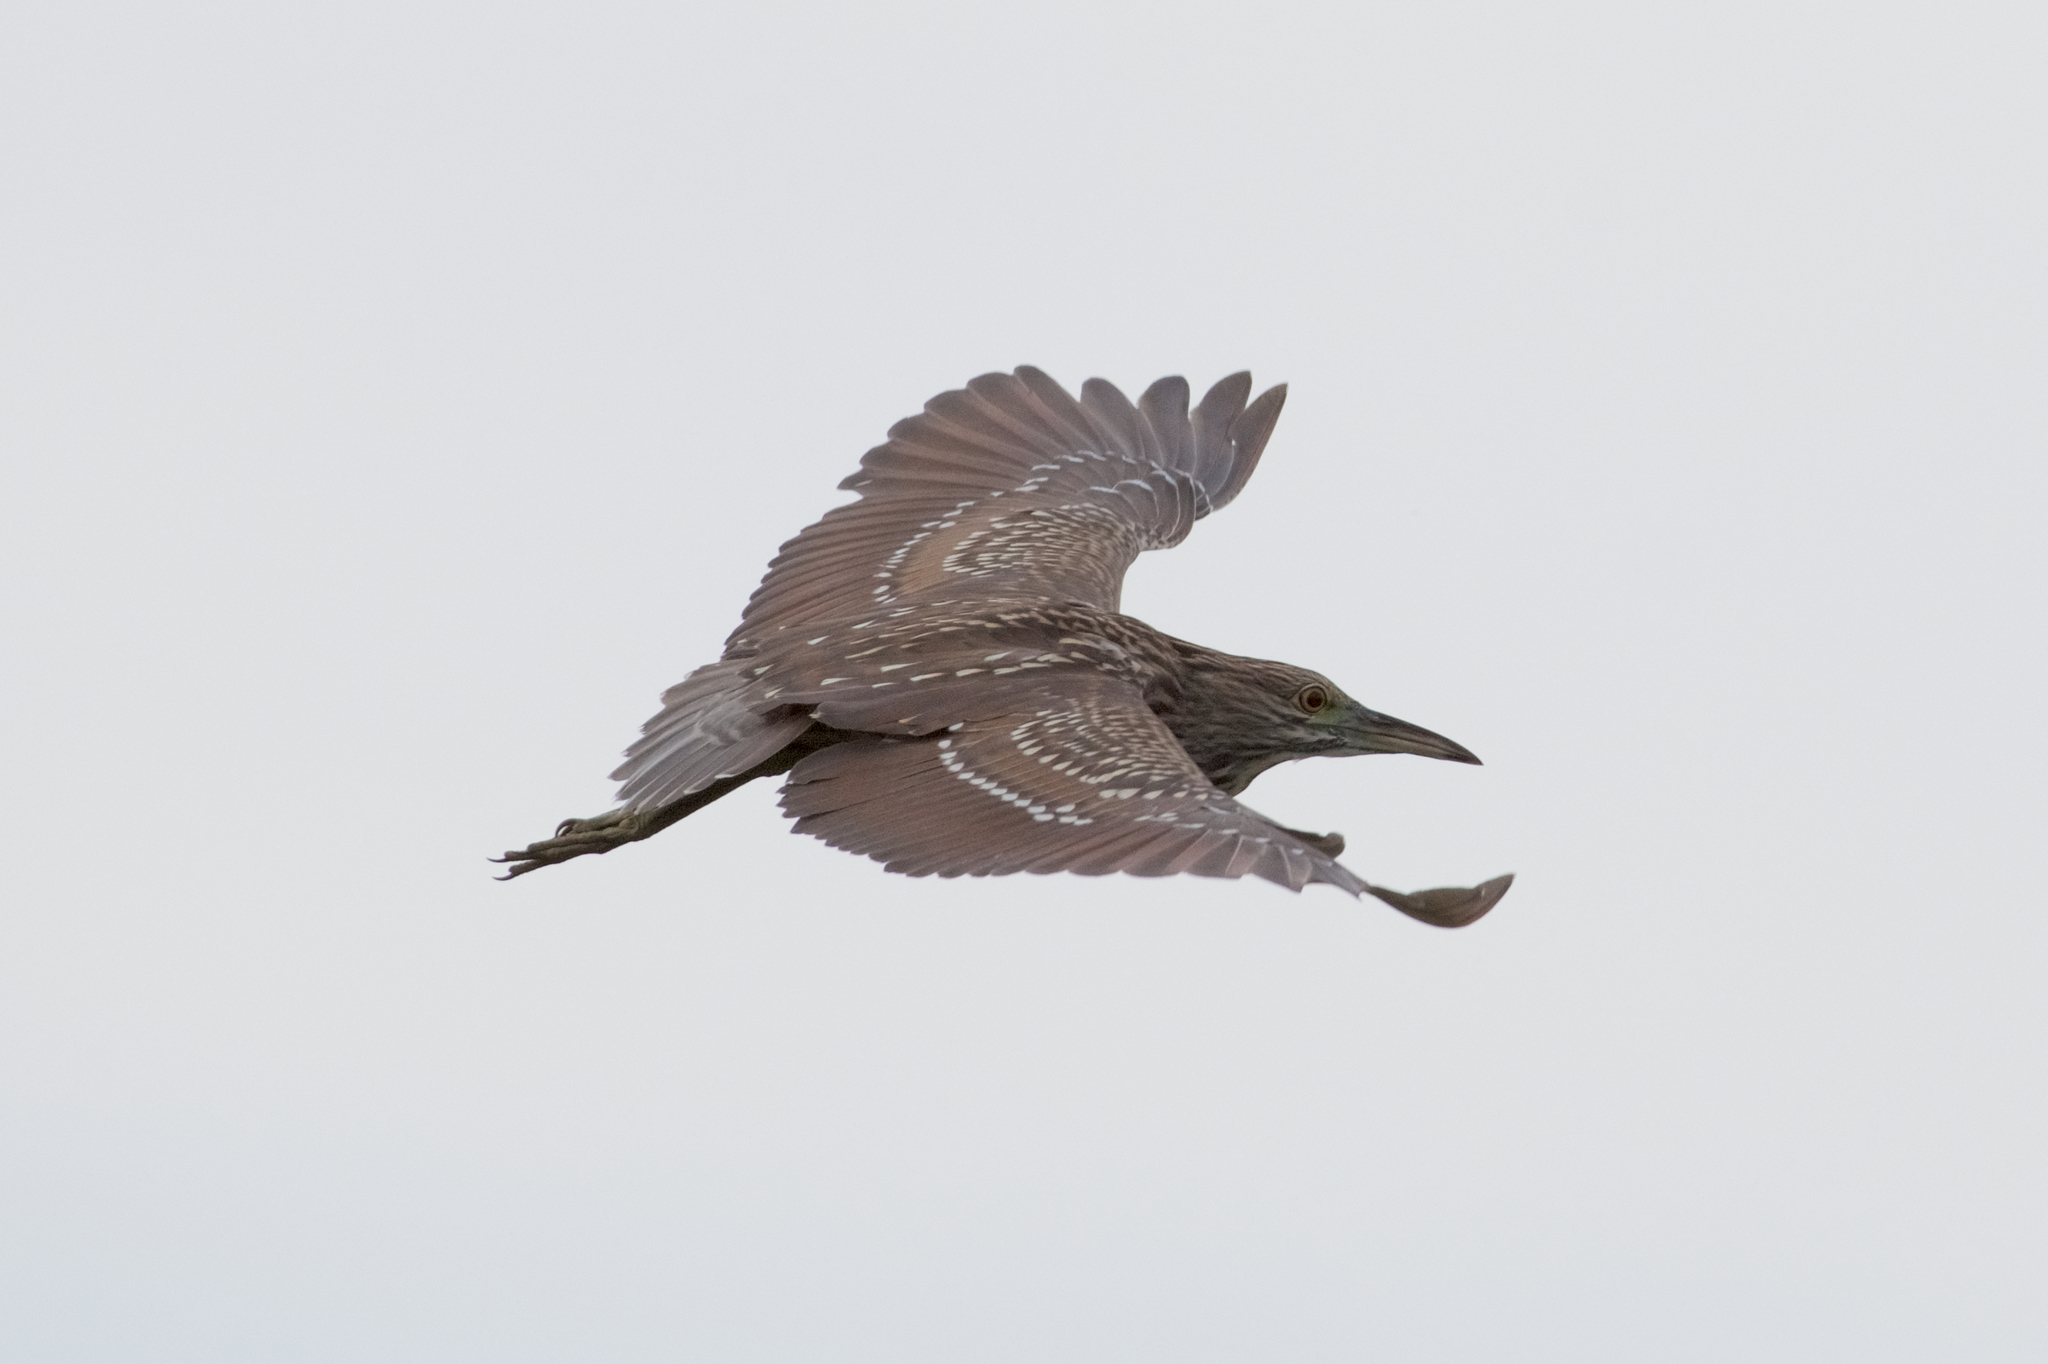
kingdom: Animalia
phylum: Chordata
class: Aves
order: Pelecaniformes
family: Ardeidae
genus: Nycticorax
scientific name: Nycticorax nycticorax
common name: Black-crowned night heron
